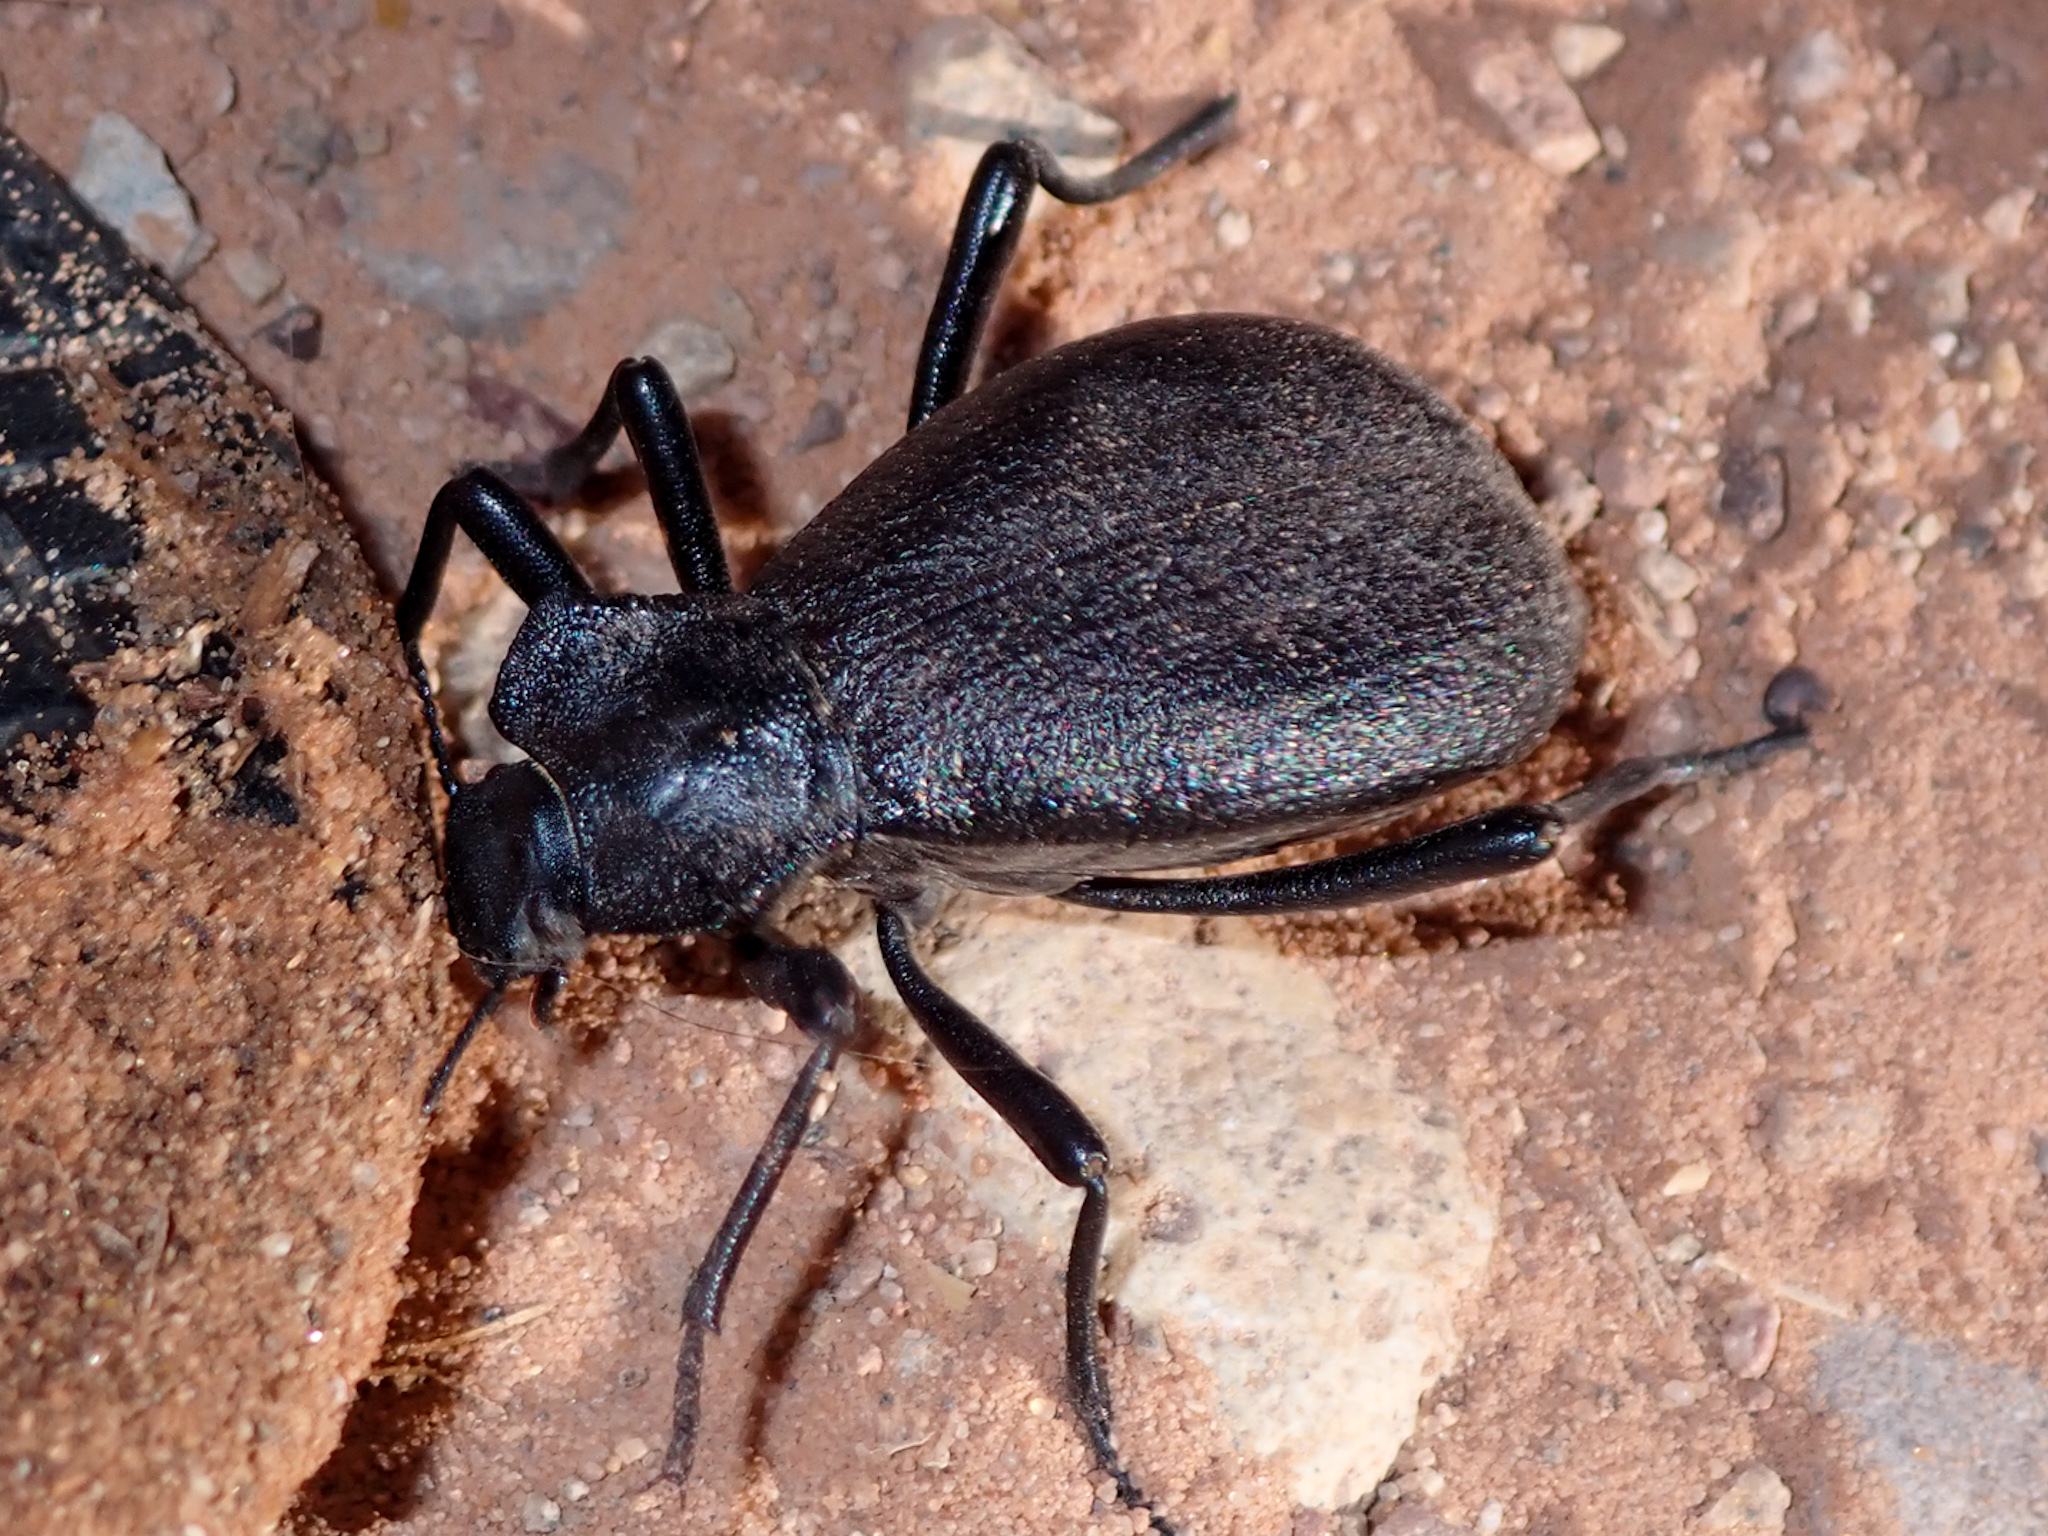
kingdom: Animalia
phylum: Arthropoda
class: Insecta
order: Coleoptera
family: Tenebrionidae
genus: Philolithus
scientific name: Philolithus elatus
